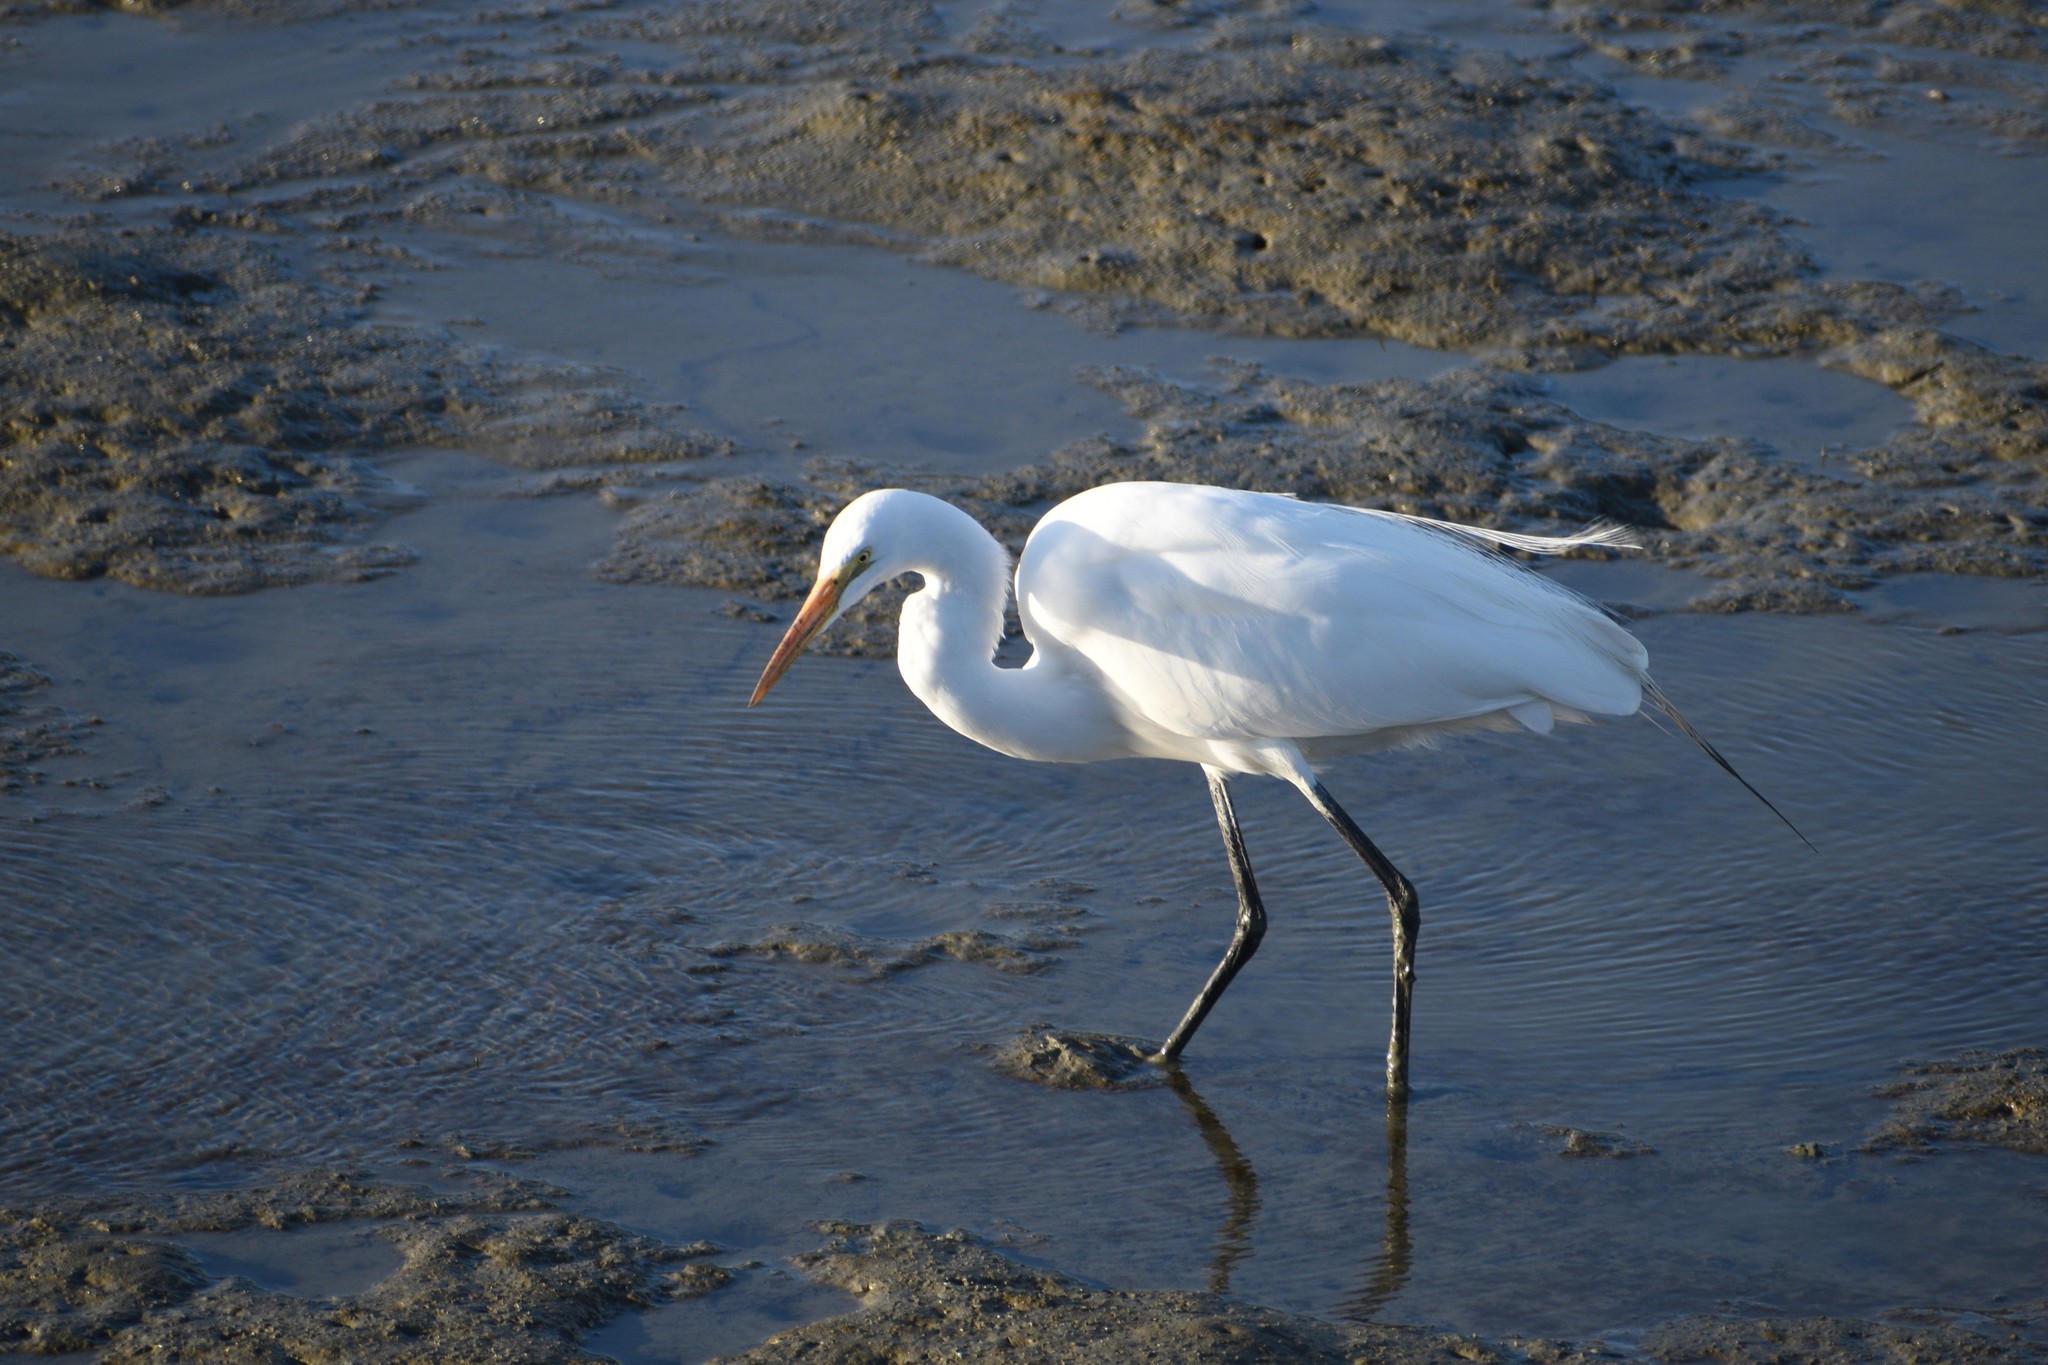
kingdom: Animalia
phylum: Chordata
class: Aves
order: Pelecaniformes
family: Ardeidae
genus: Ardea
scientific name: Ardea alba
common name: Great egret
